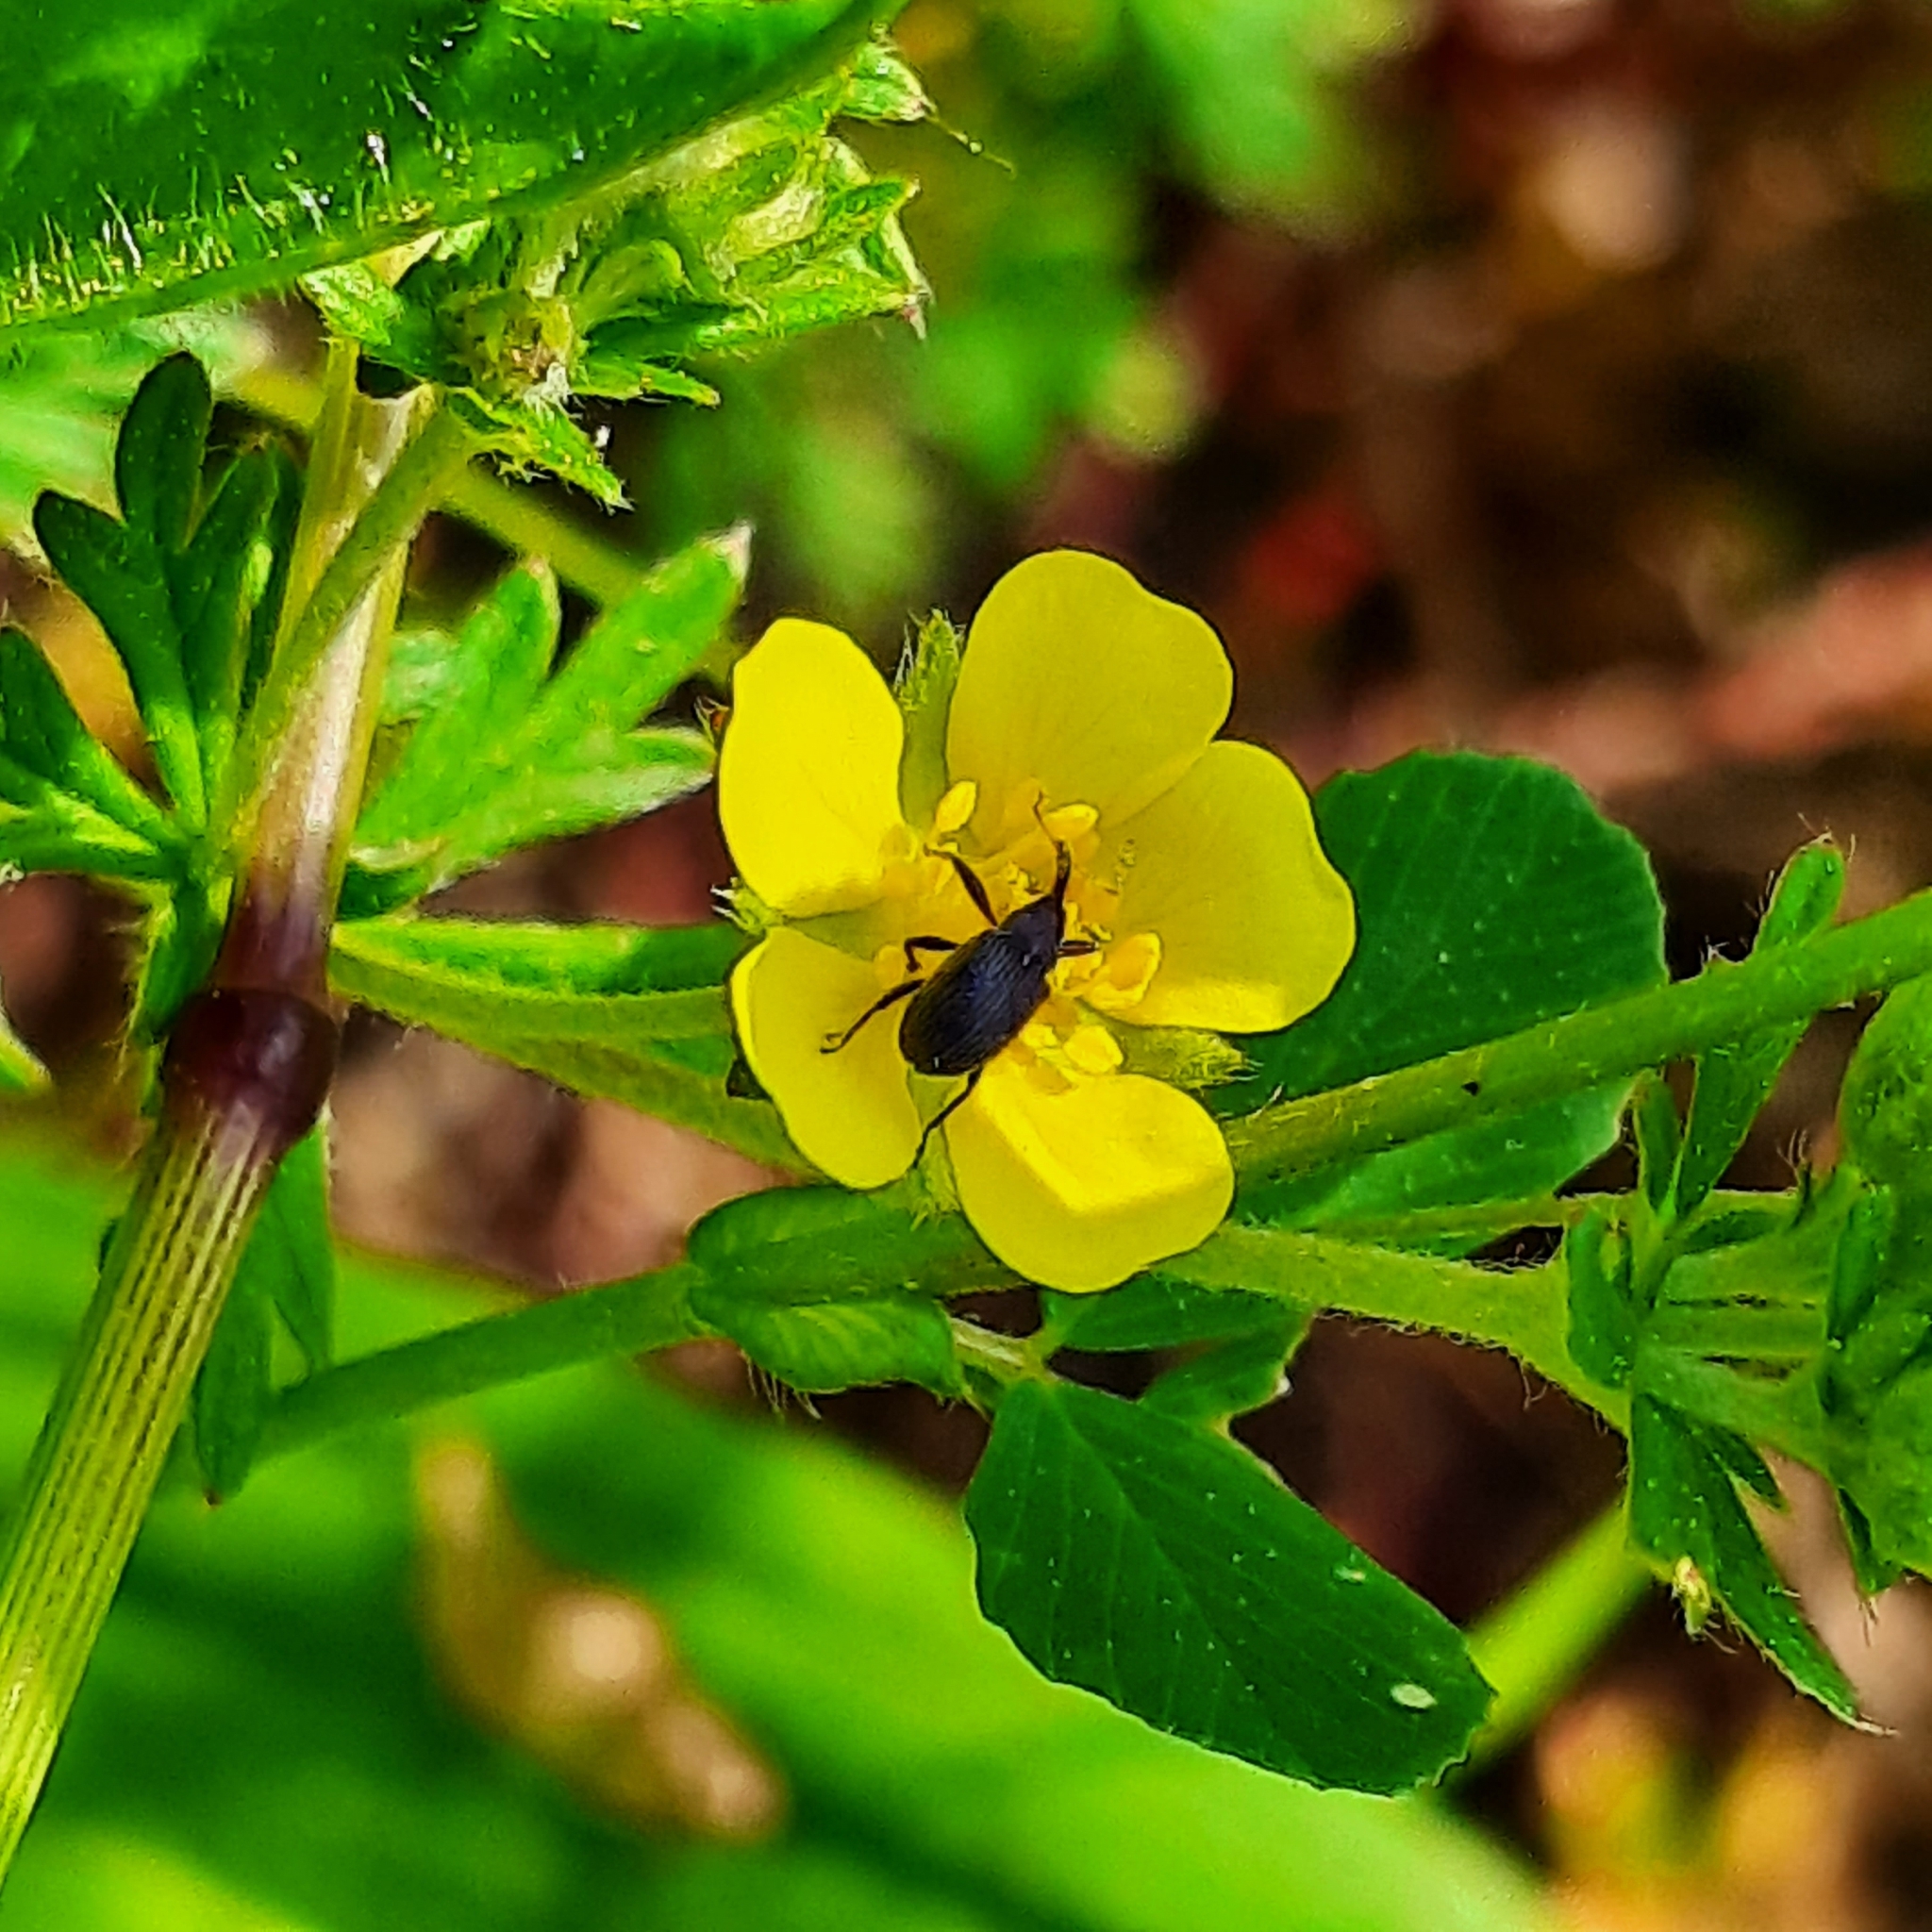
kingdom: Animalia
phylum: Arthropoda
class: Insecta
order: Coleoptera
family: Curculionidae
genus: Anthonomus
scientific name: Anthonomus rubi
